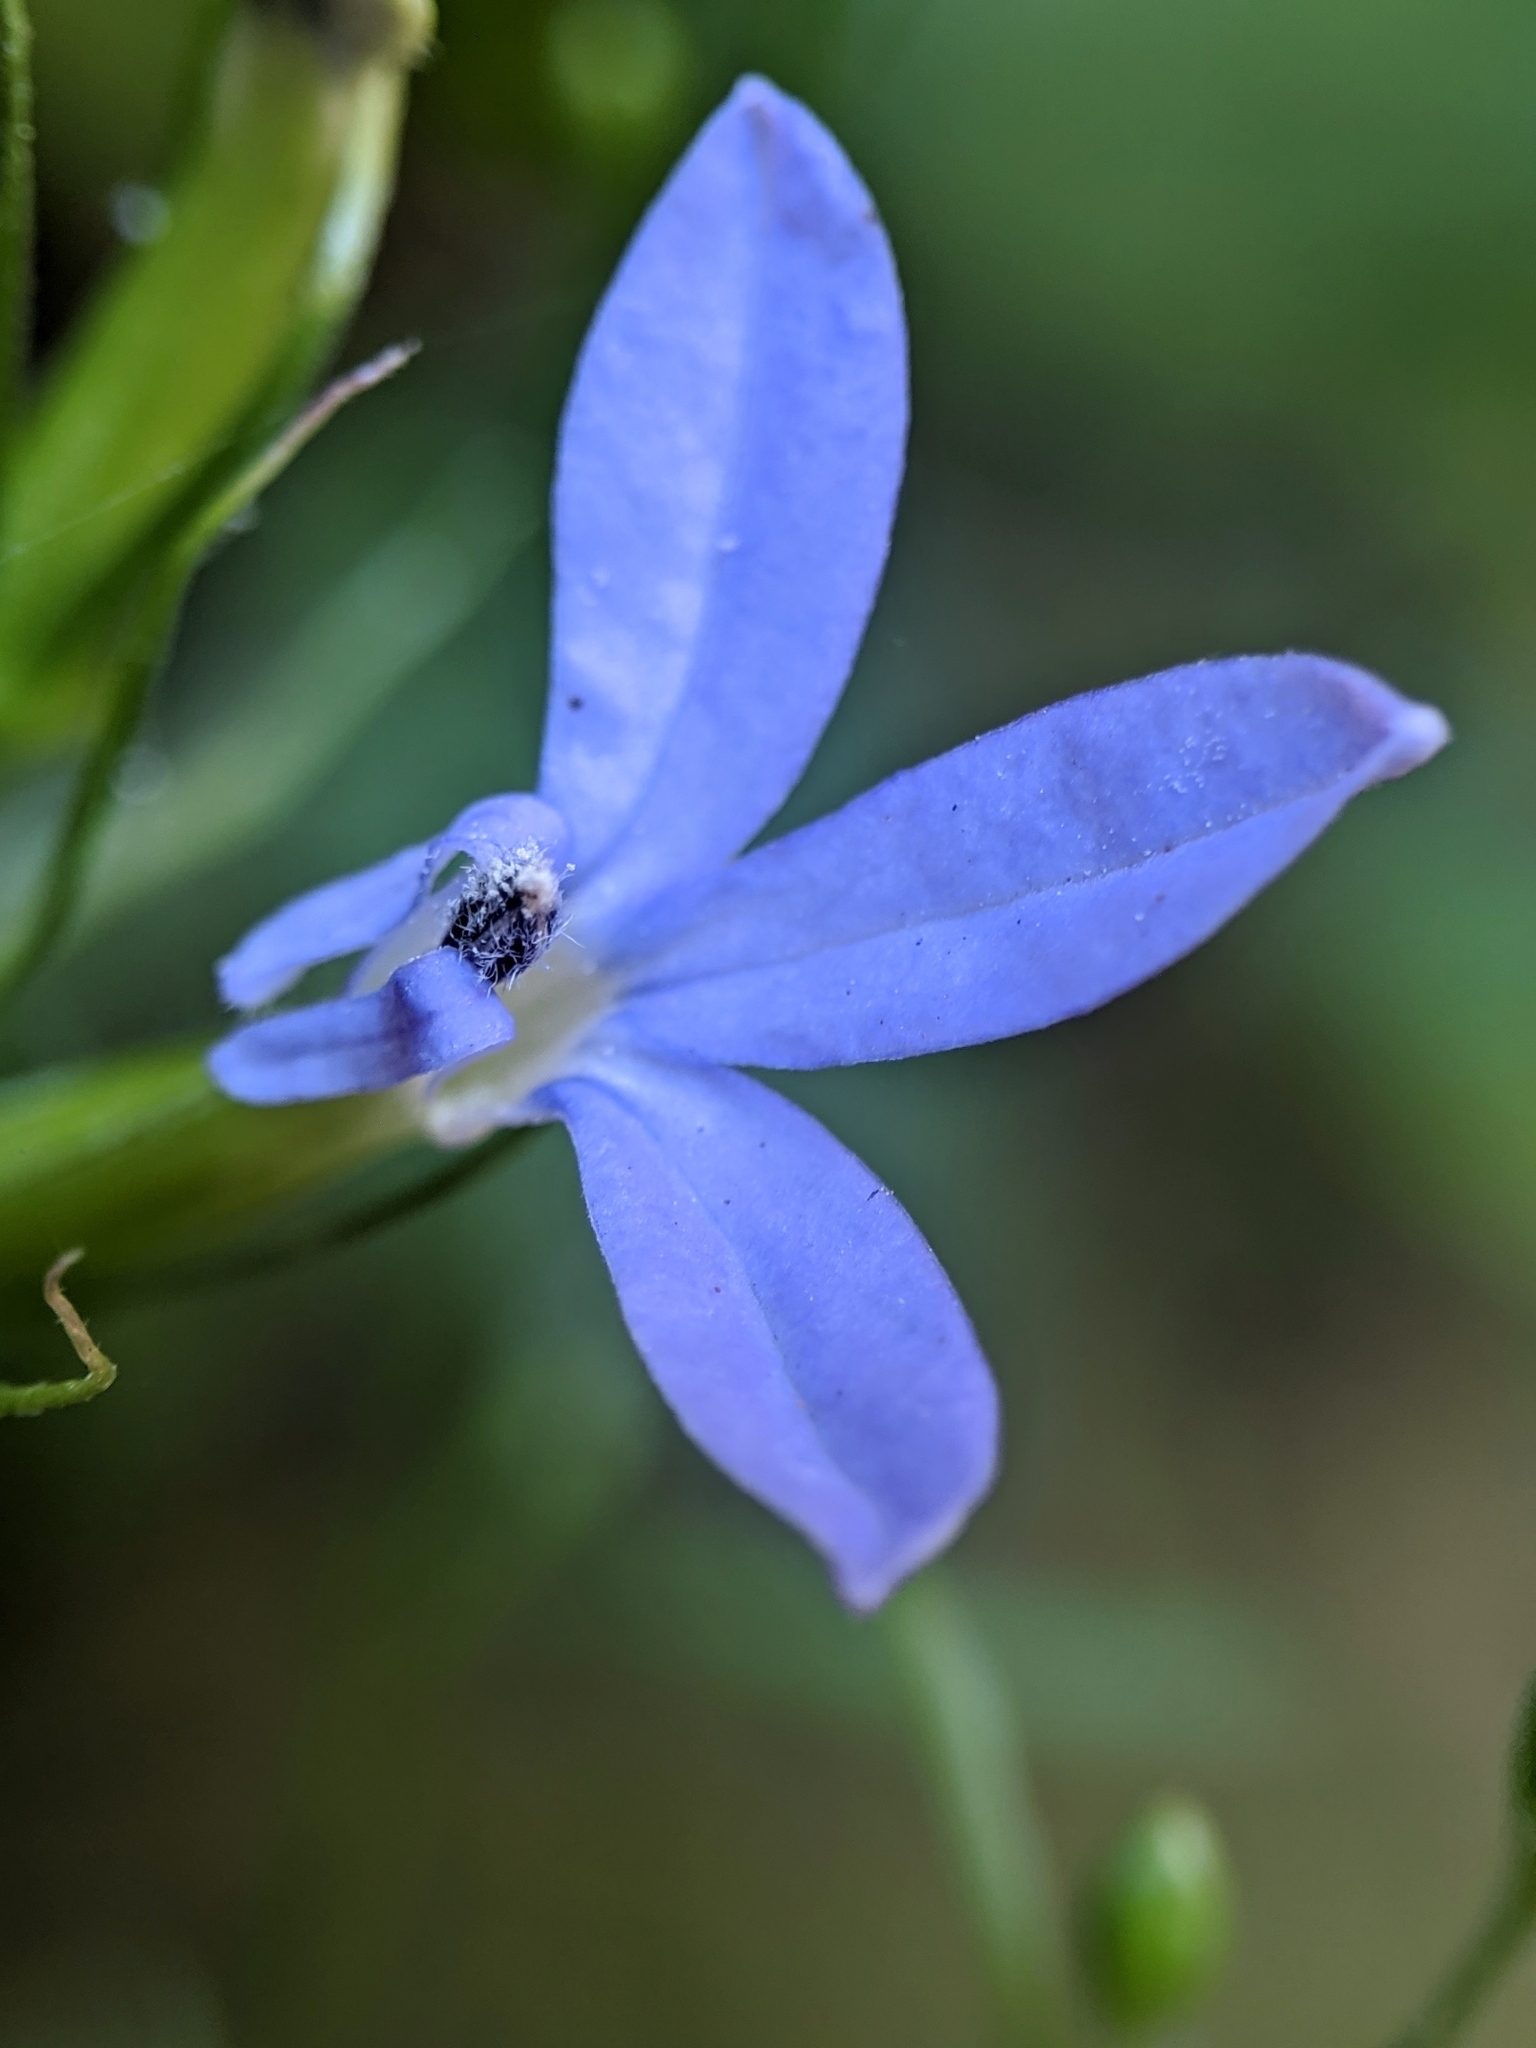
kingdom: Plantae
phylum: Tracheophyta
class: Magnoliopsida
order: Asterales
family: Campanulaceae
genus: Palmerella
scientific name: Palmerella debilis
